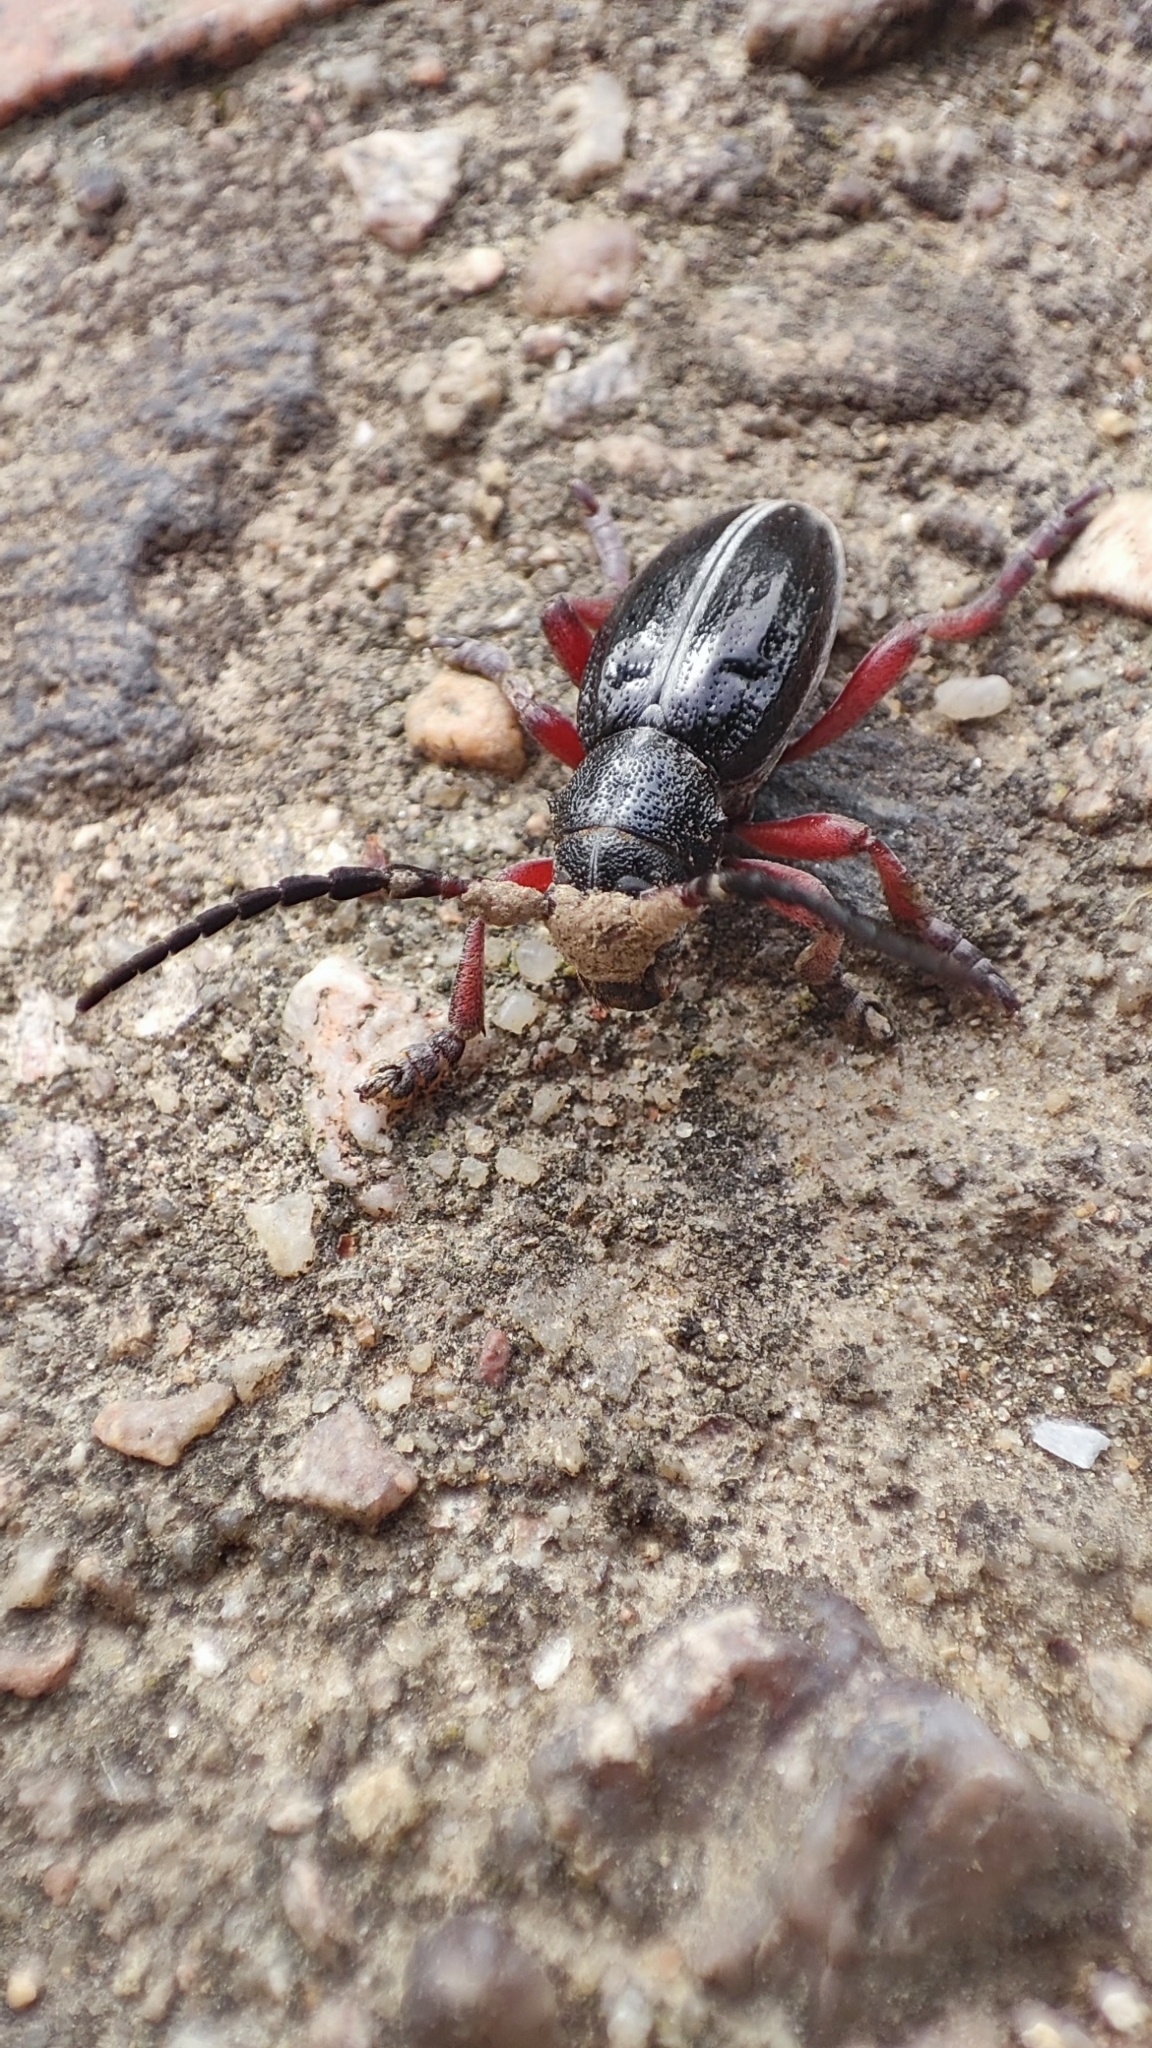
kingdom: Animalia
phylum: Arthropoda
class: Insecta
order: Coleoptera
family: Cerambycidae
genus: Dorcadion
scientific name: Dorcadion pedestre
